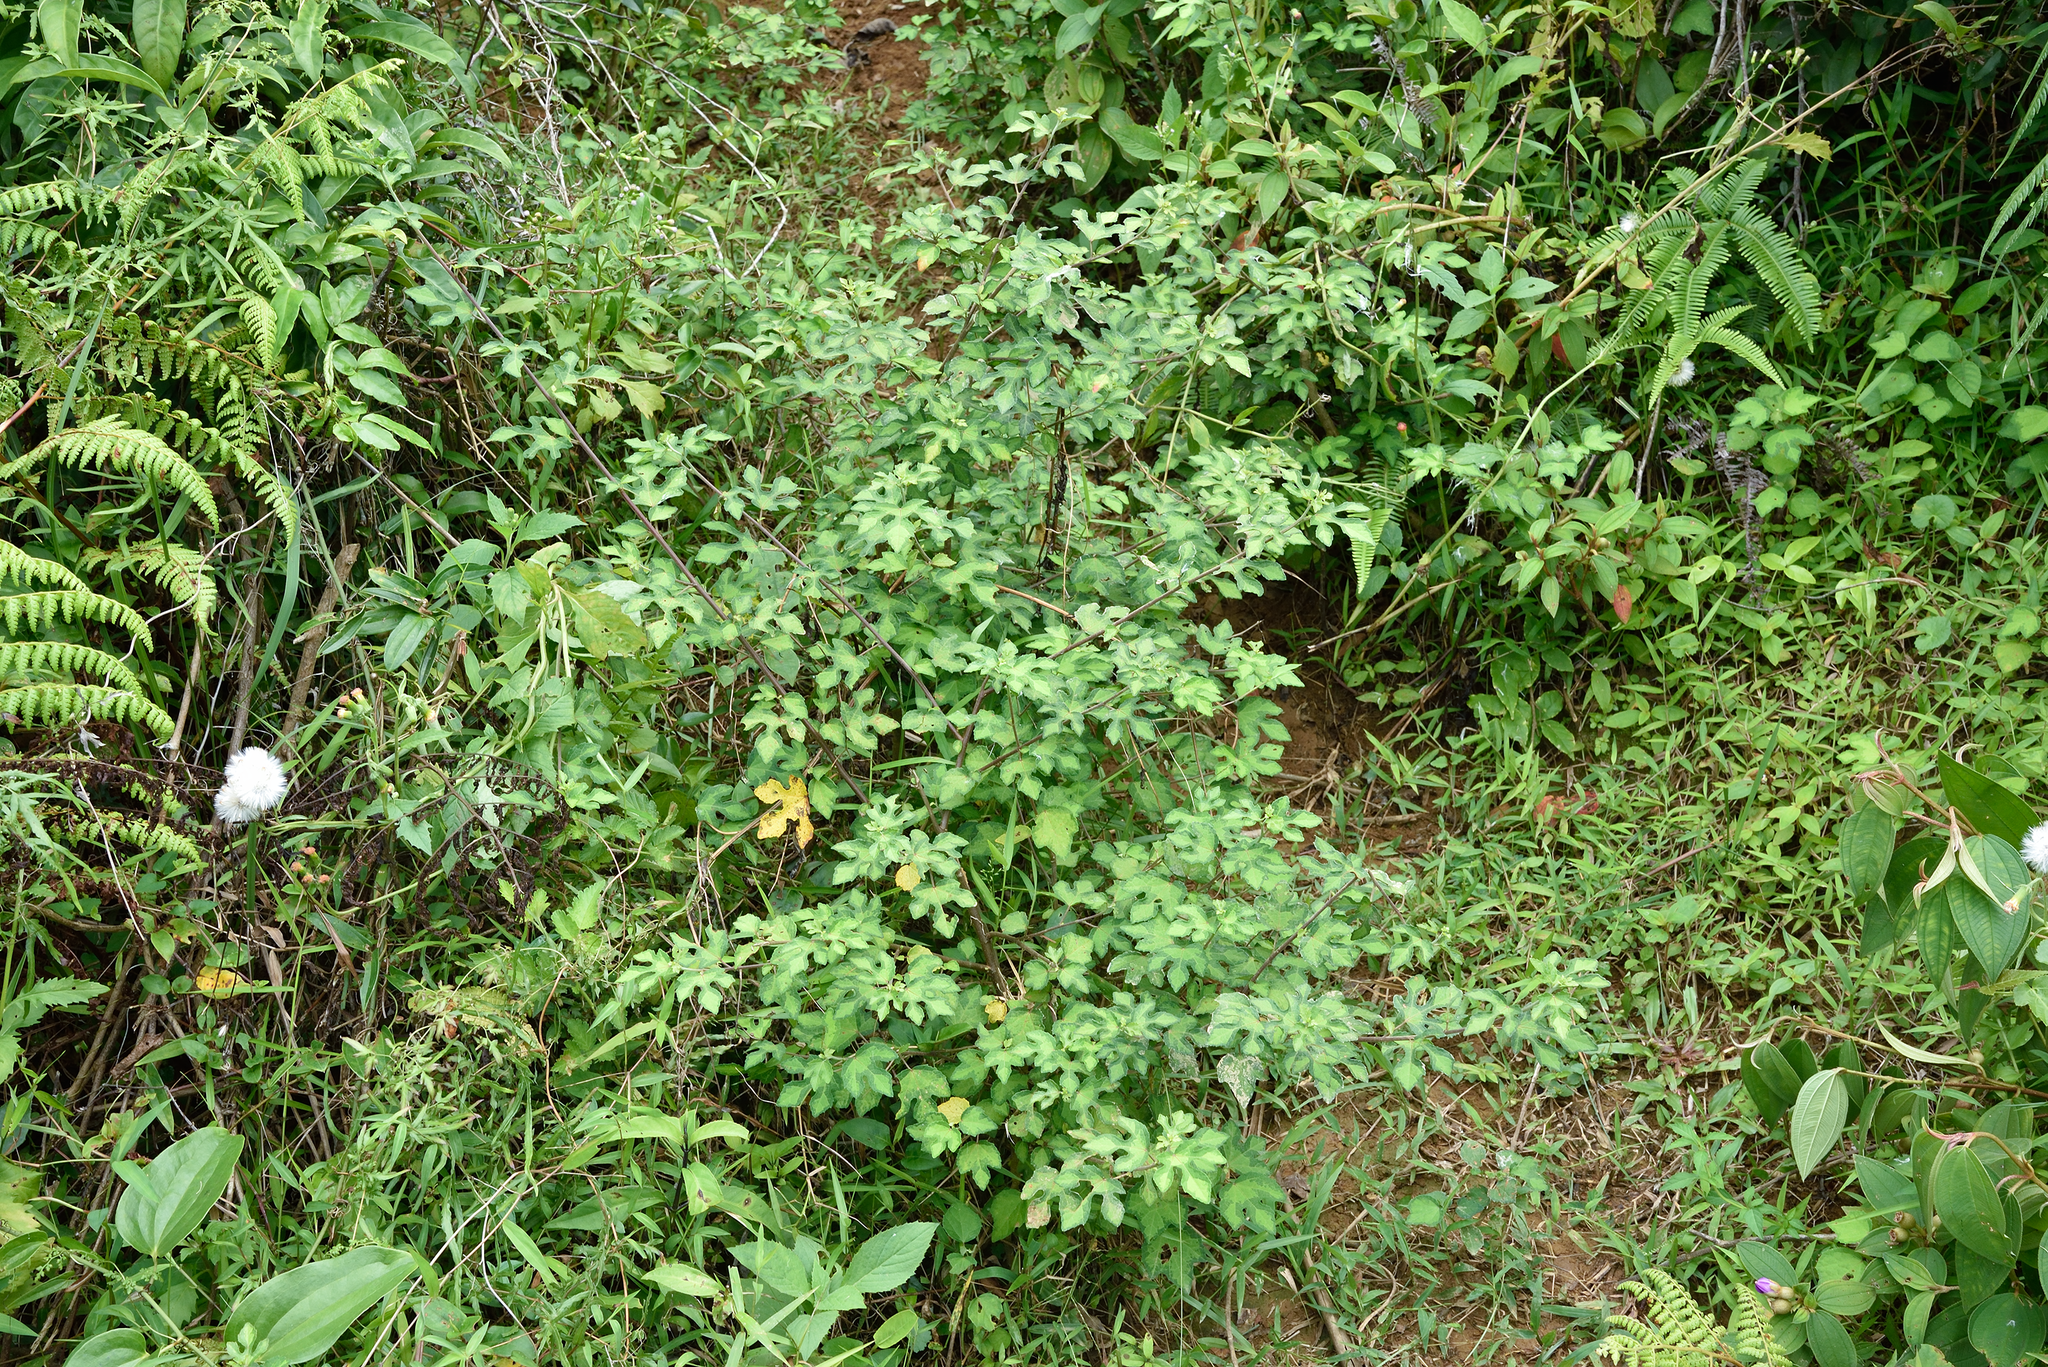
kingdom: Plantae
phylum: Tracheophyta
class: Magnoliopsida
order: Malvales
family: Malvaceae
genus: Urena
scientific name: Urena procumbens
